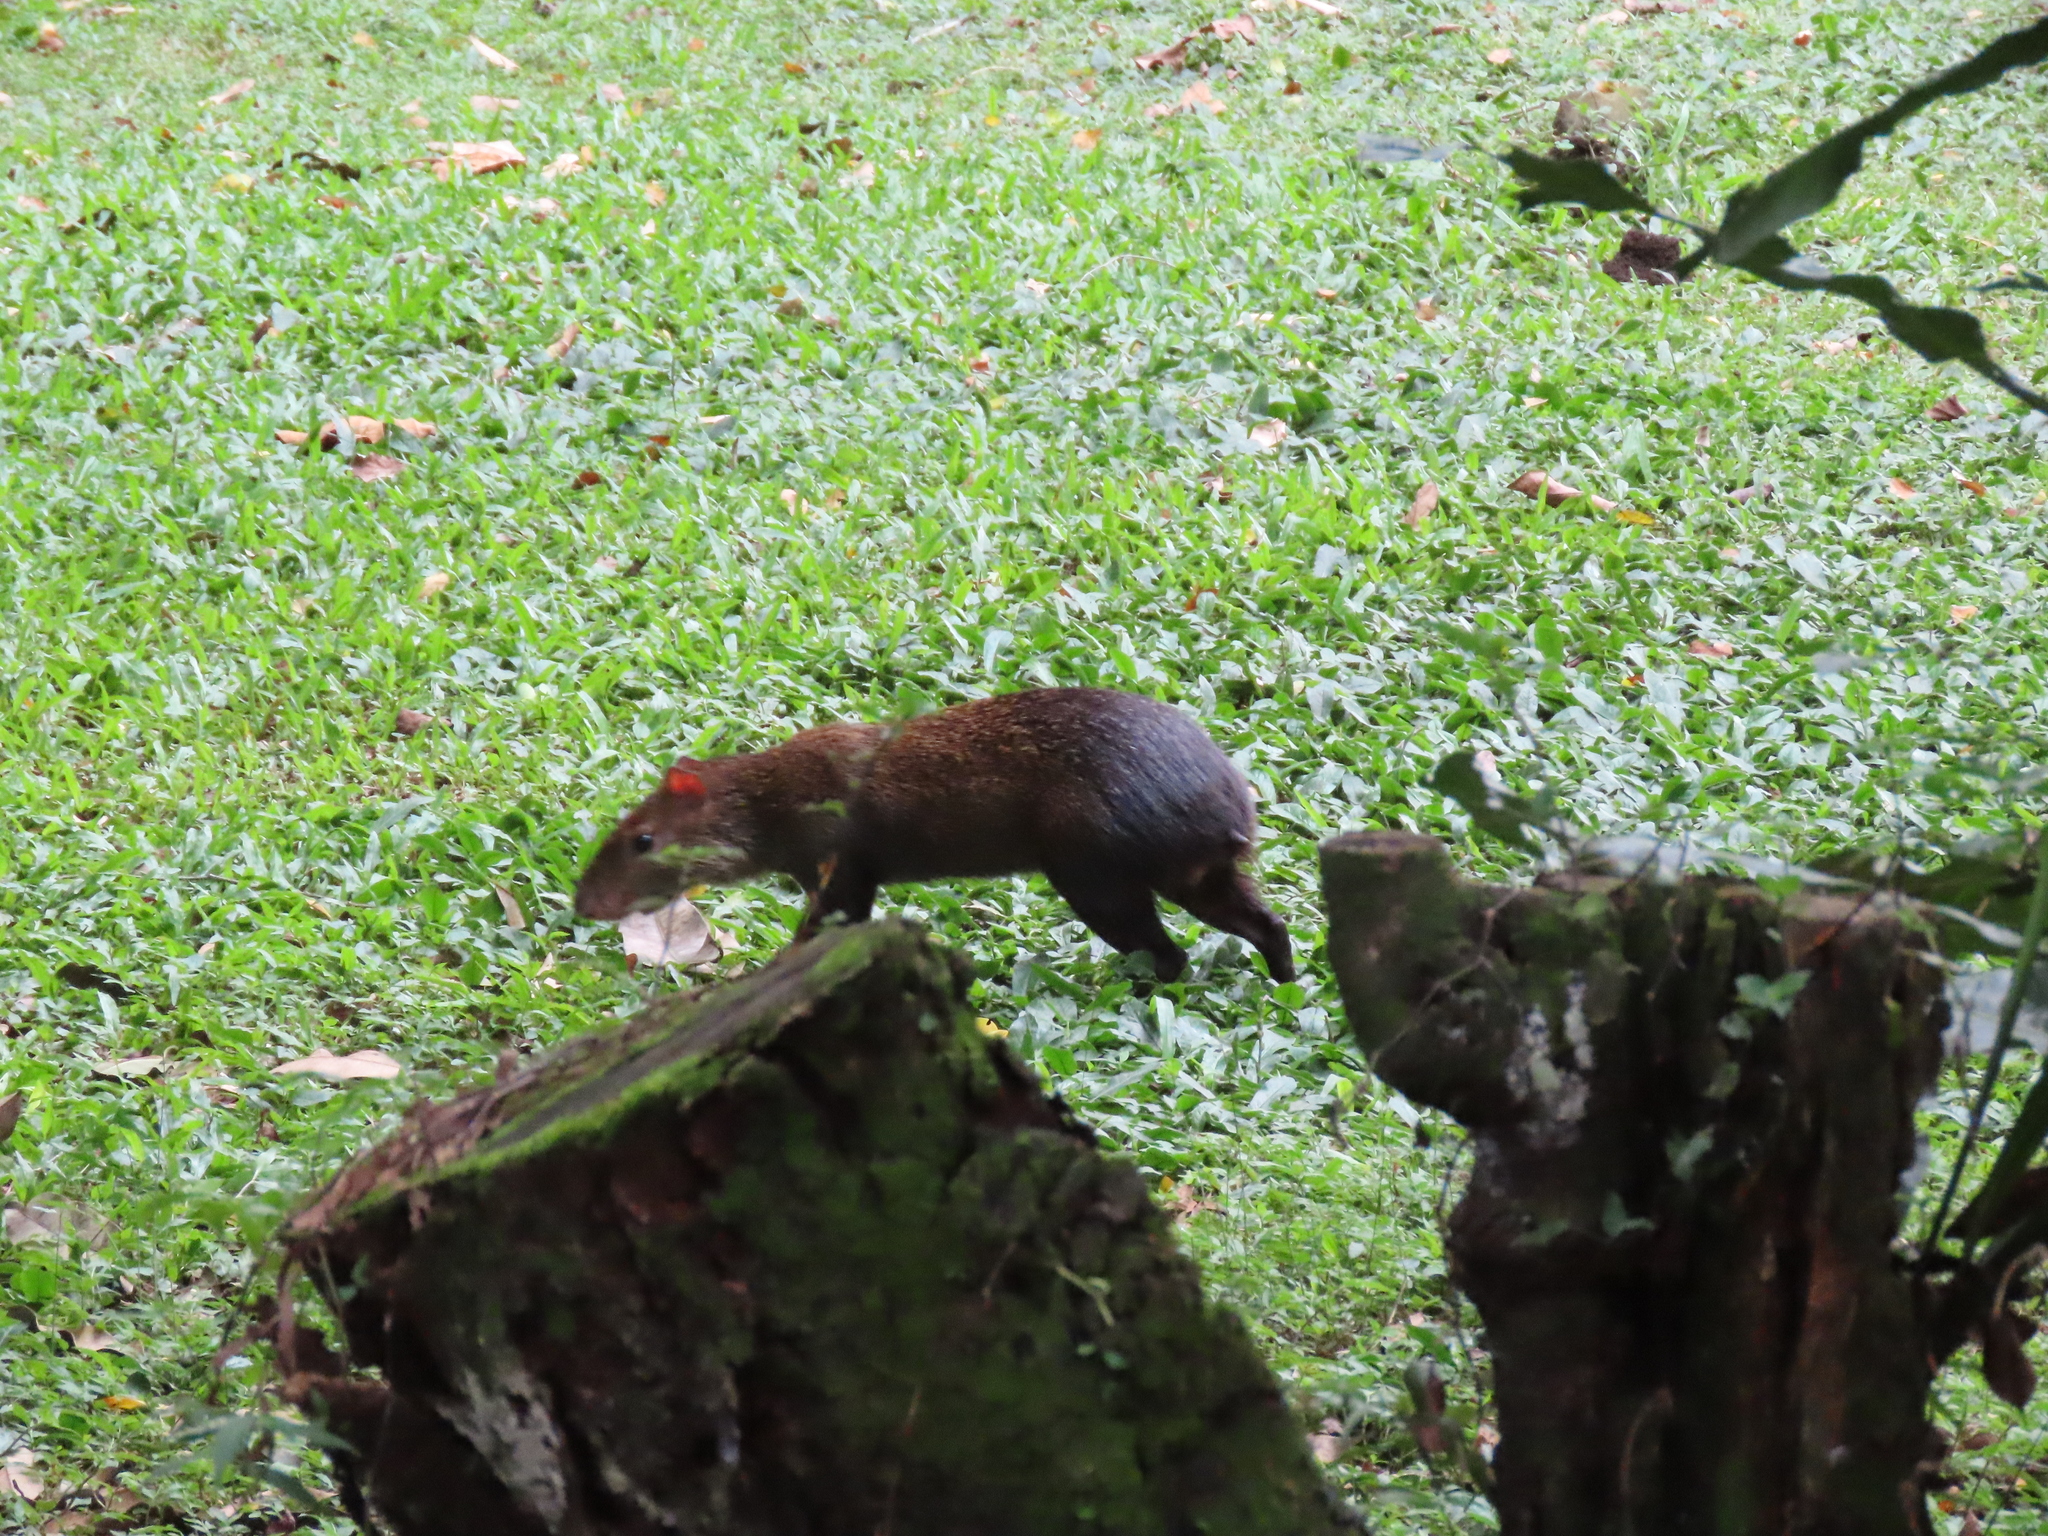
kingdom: Animalia
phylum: Chordata
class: Mammalia
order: Rodentia
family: Dasyproctidae
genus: Dasyprocta
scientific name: Dasyprocta punctata
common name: Central american agouti
